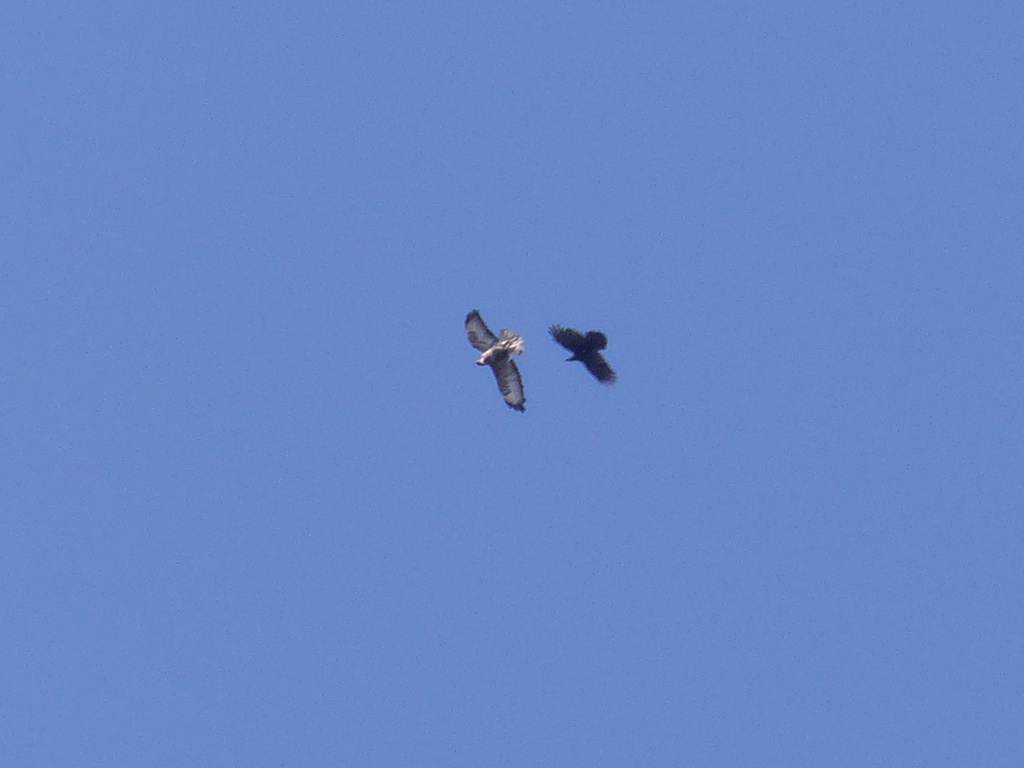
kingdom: Animalia
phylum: Chordata
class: Aves
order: Accipitriformes
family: Accipitridae
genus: Buteo
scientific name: Buteo buteo
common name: Common buzzard
